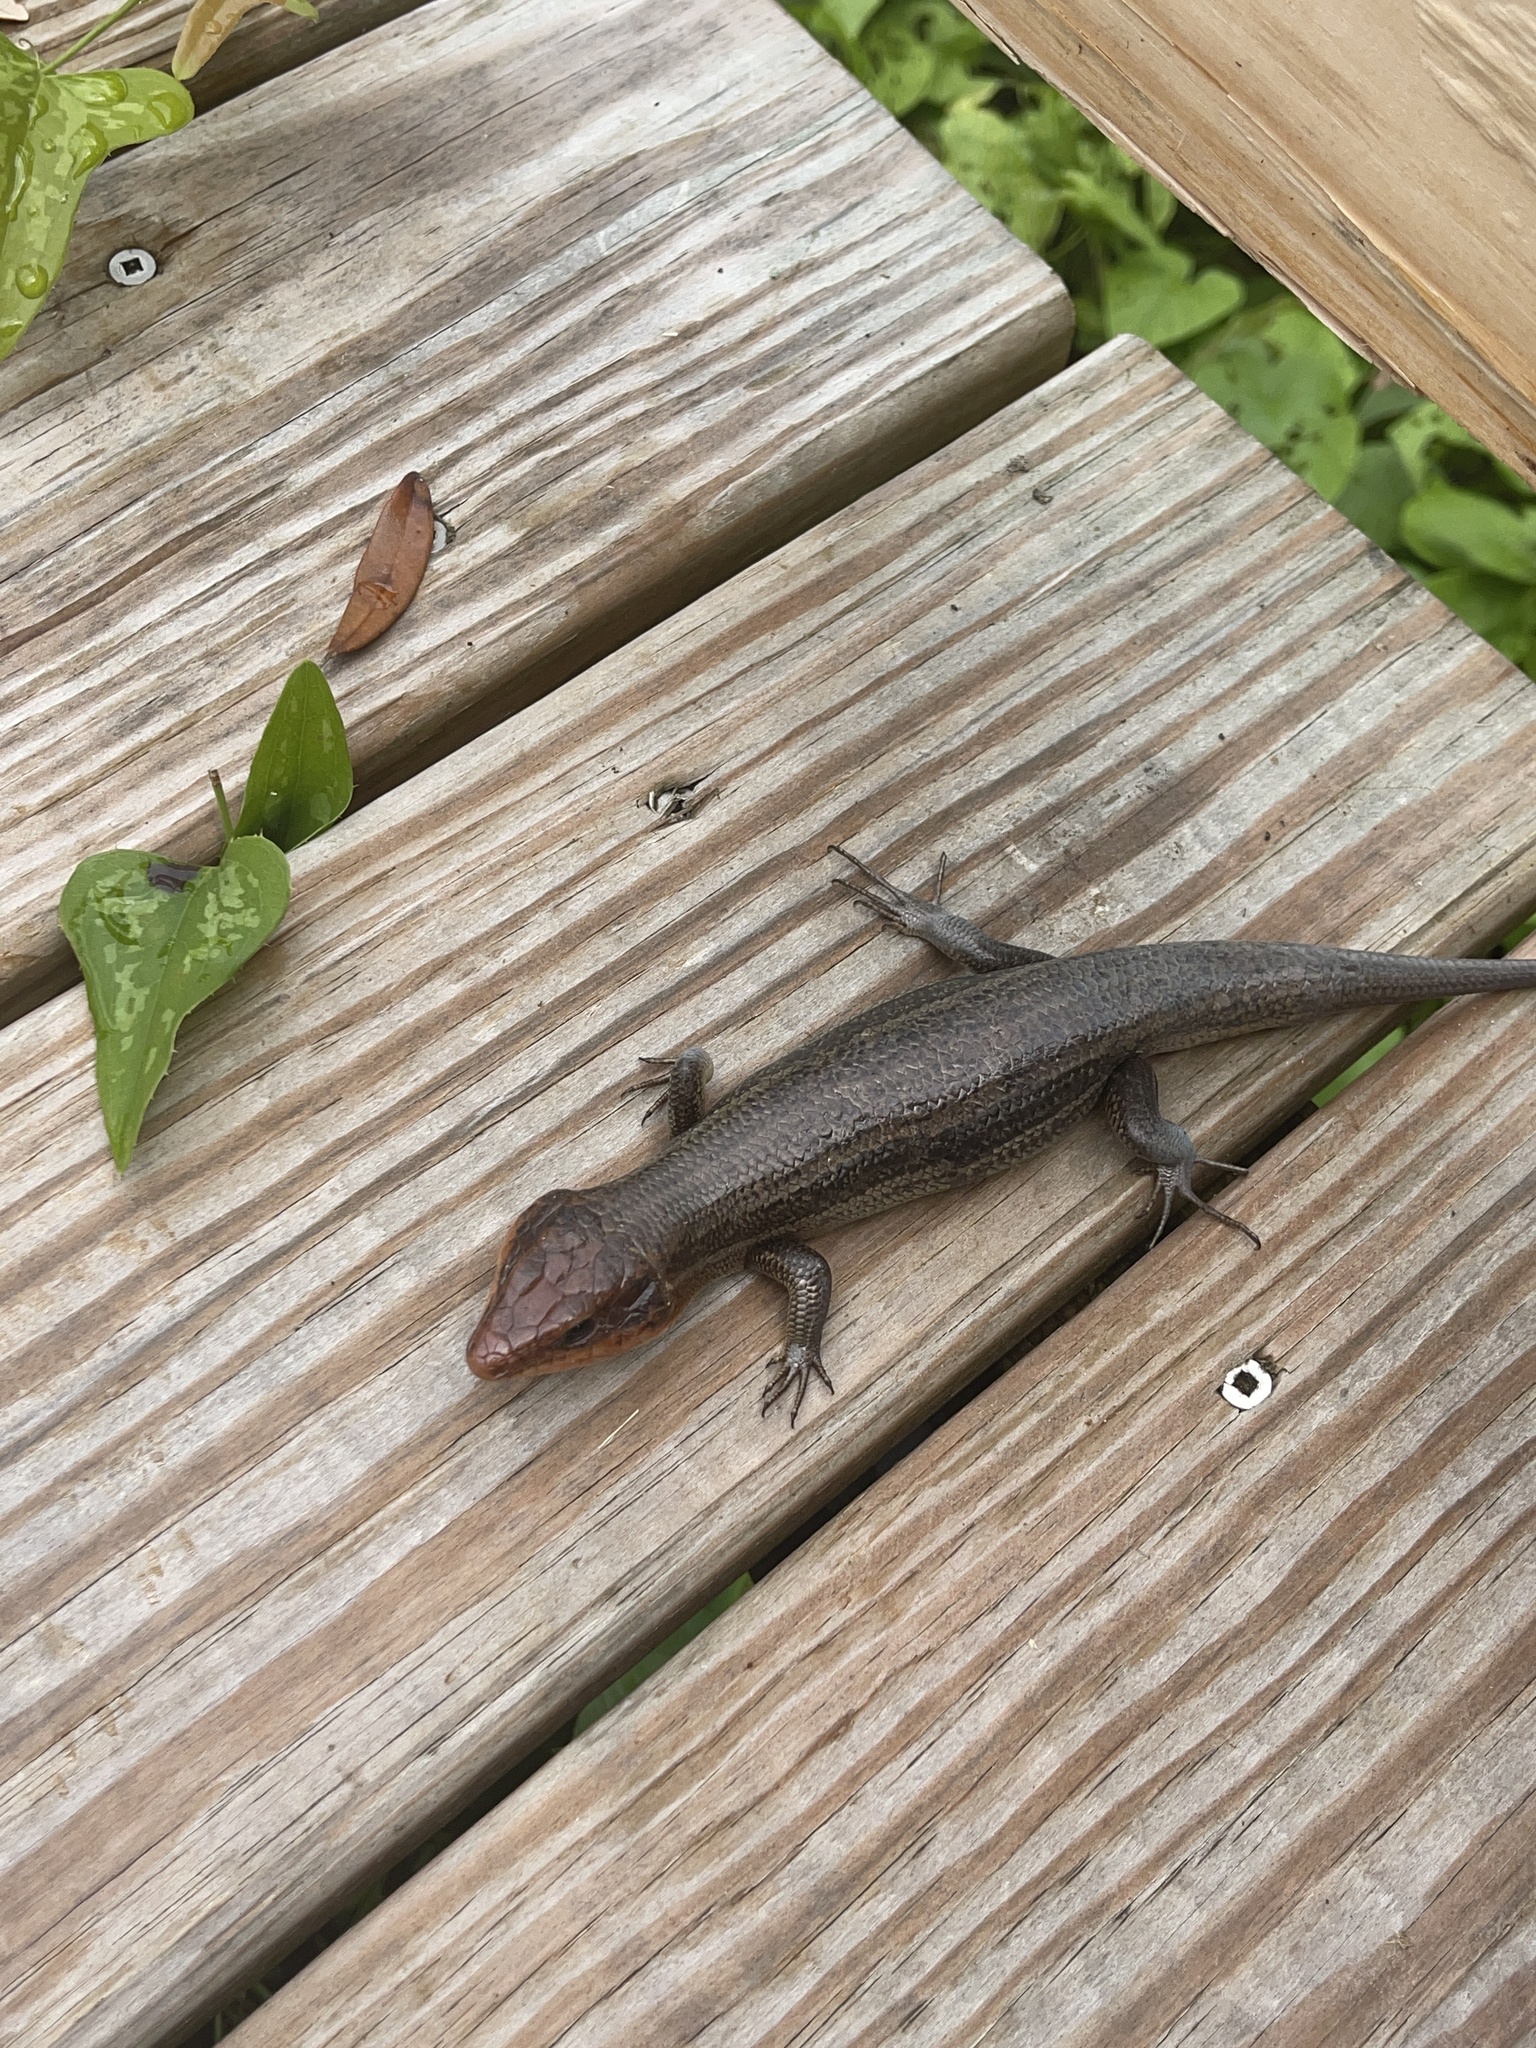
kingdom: Animalia
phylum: Chordata
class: Squamata
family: Scincidae
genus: Plestiodon
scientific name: Plestiodon laticeps
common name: Broadhead skink
